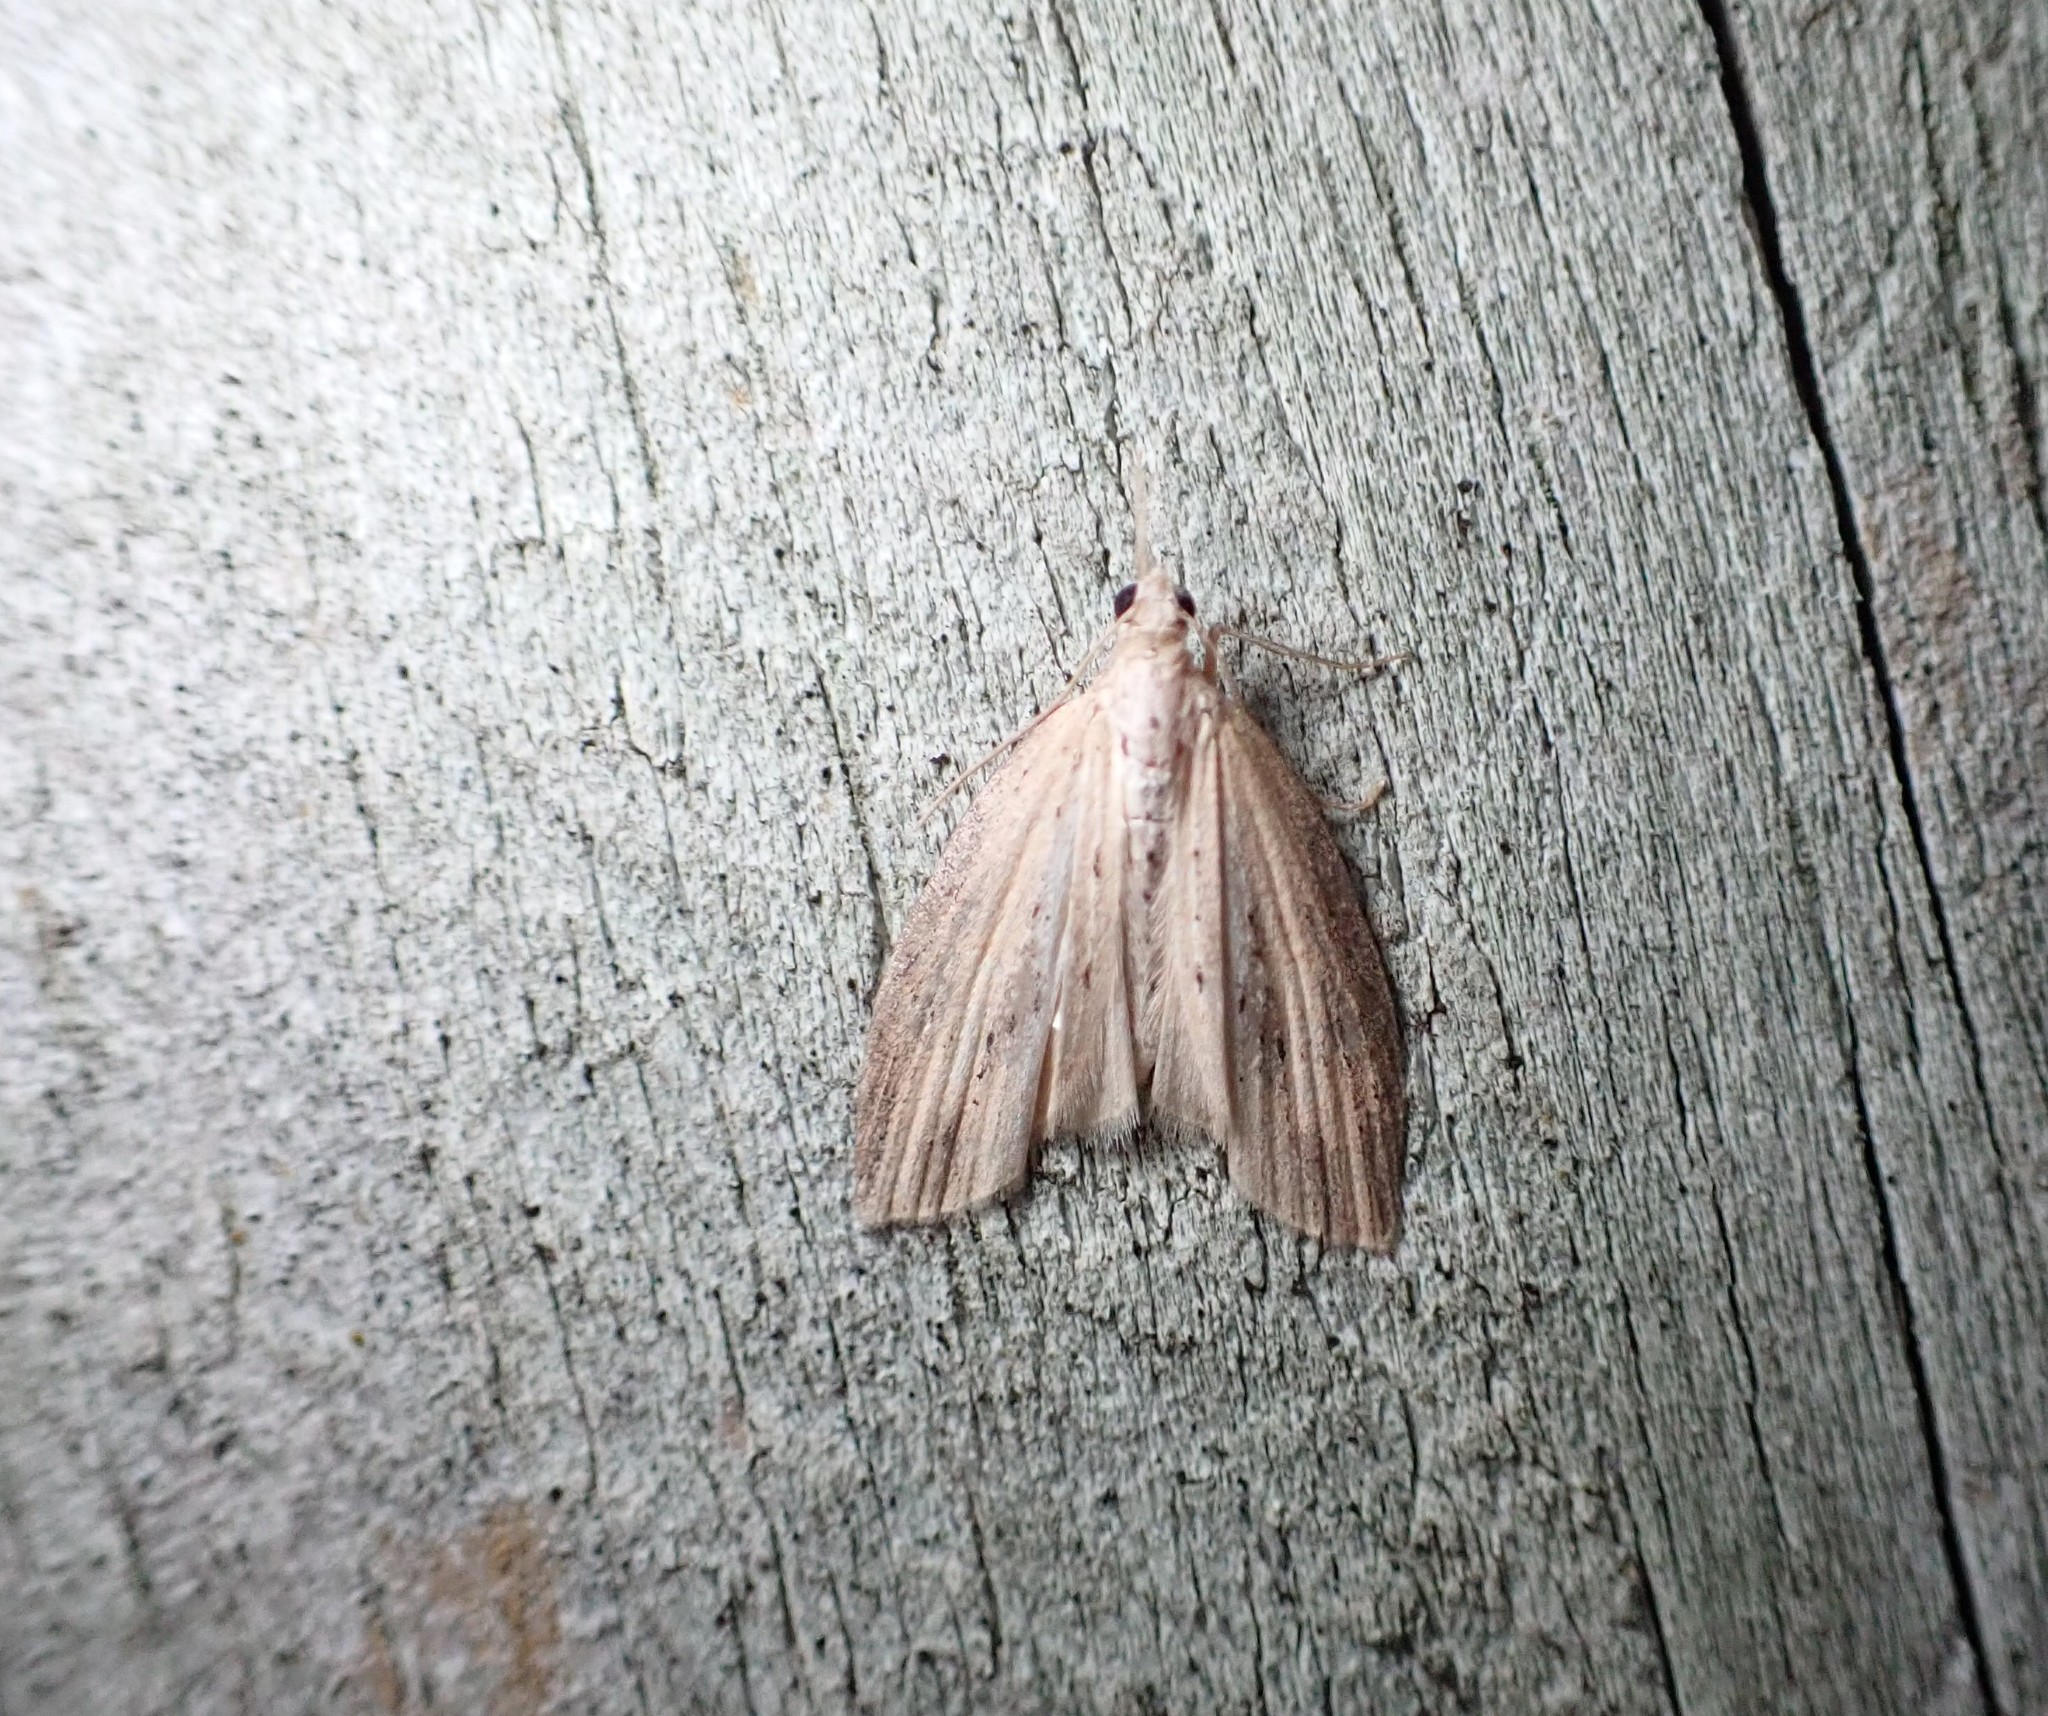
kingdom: Animalia
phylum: Arthropoda
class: Insecta
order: Lepidoptera
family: Geometridae
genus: Microdes
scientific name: Microdes epicryptis
